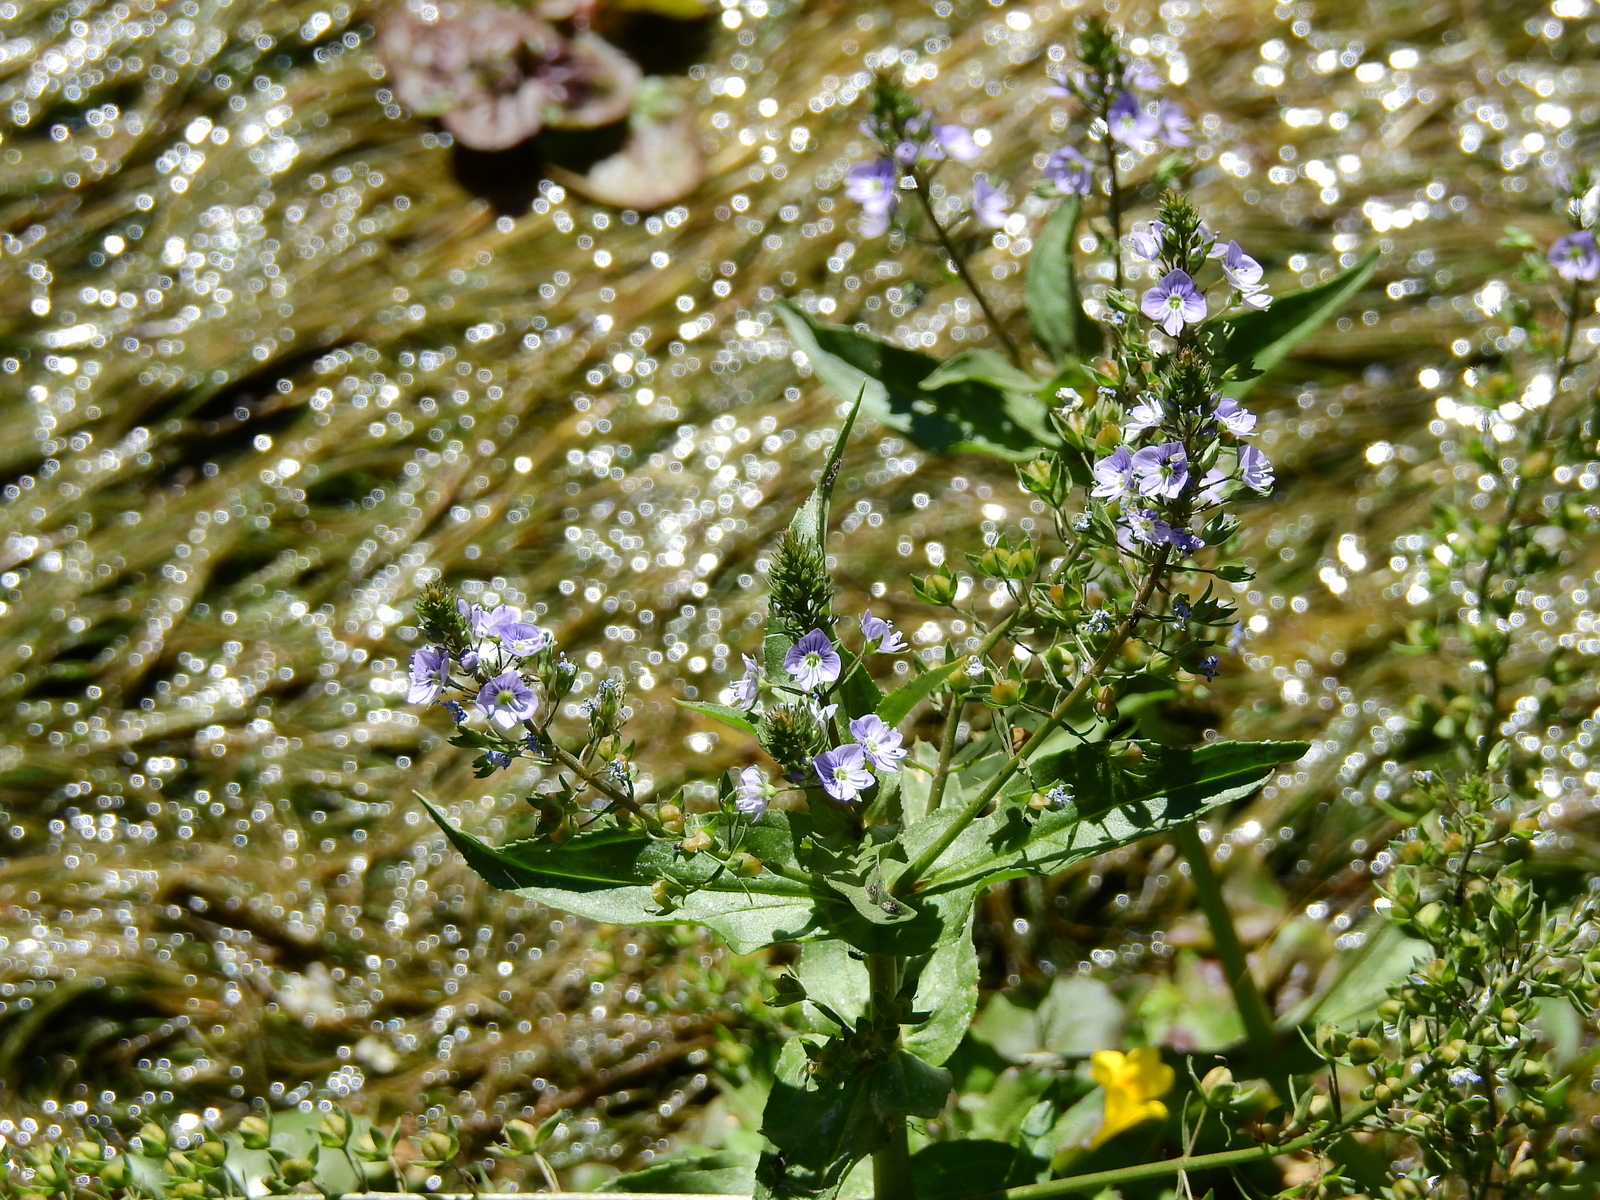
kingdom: Plantae
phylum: Tracheophyta
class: Magnoliopsida
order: Lamiales
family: Plantaginaceae
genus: Veronica
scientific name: Veronica anagallis-aquatica
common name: Water speedwell
